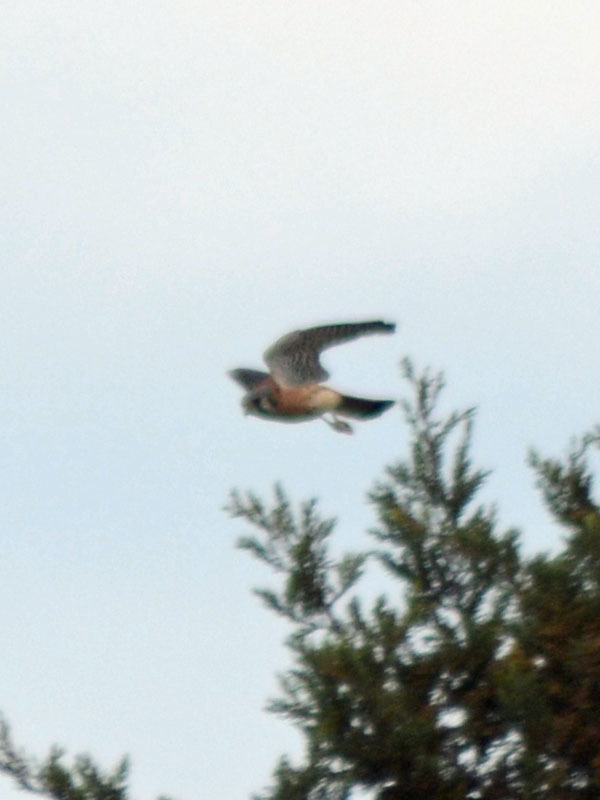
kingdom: Animalia
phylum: Chordata
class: Aves
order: Falconiformes
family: Falconidae
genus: Falco
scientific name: Falco sparverius
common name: American kestrel
